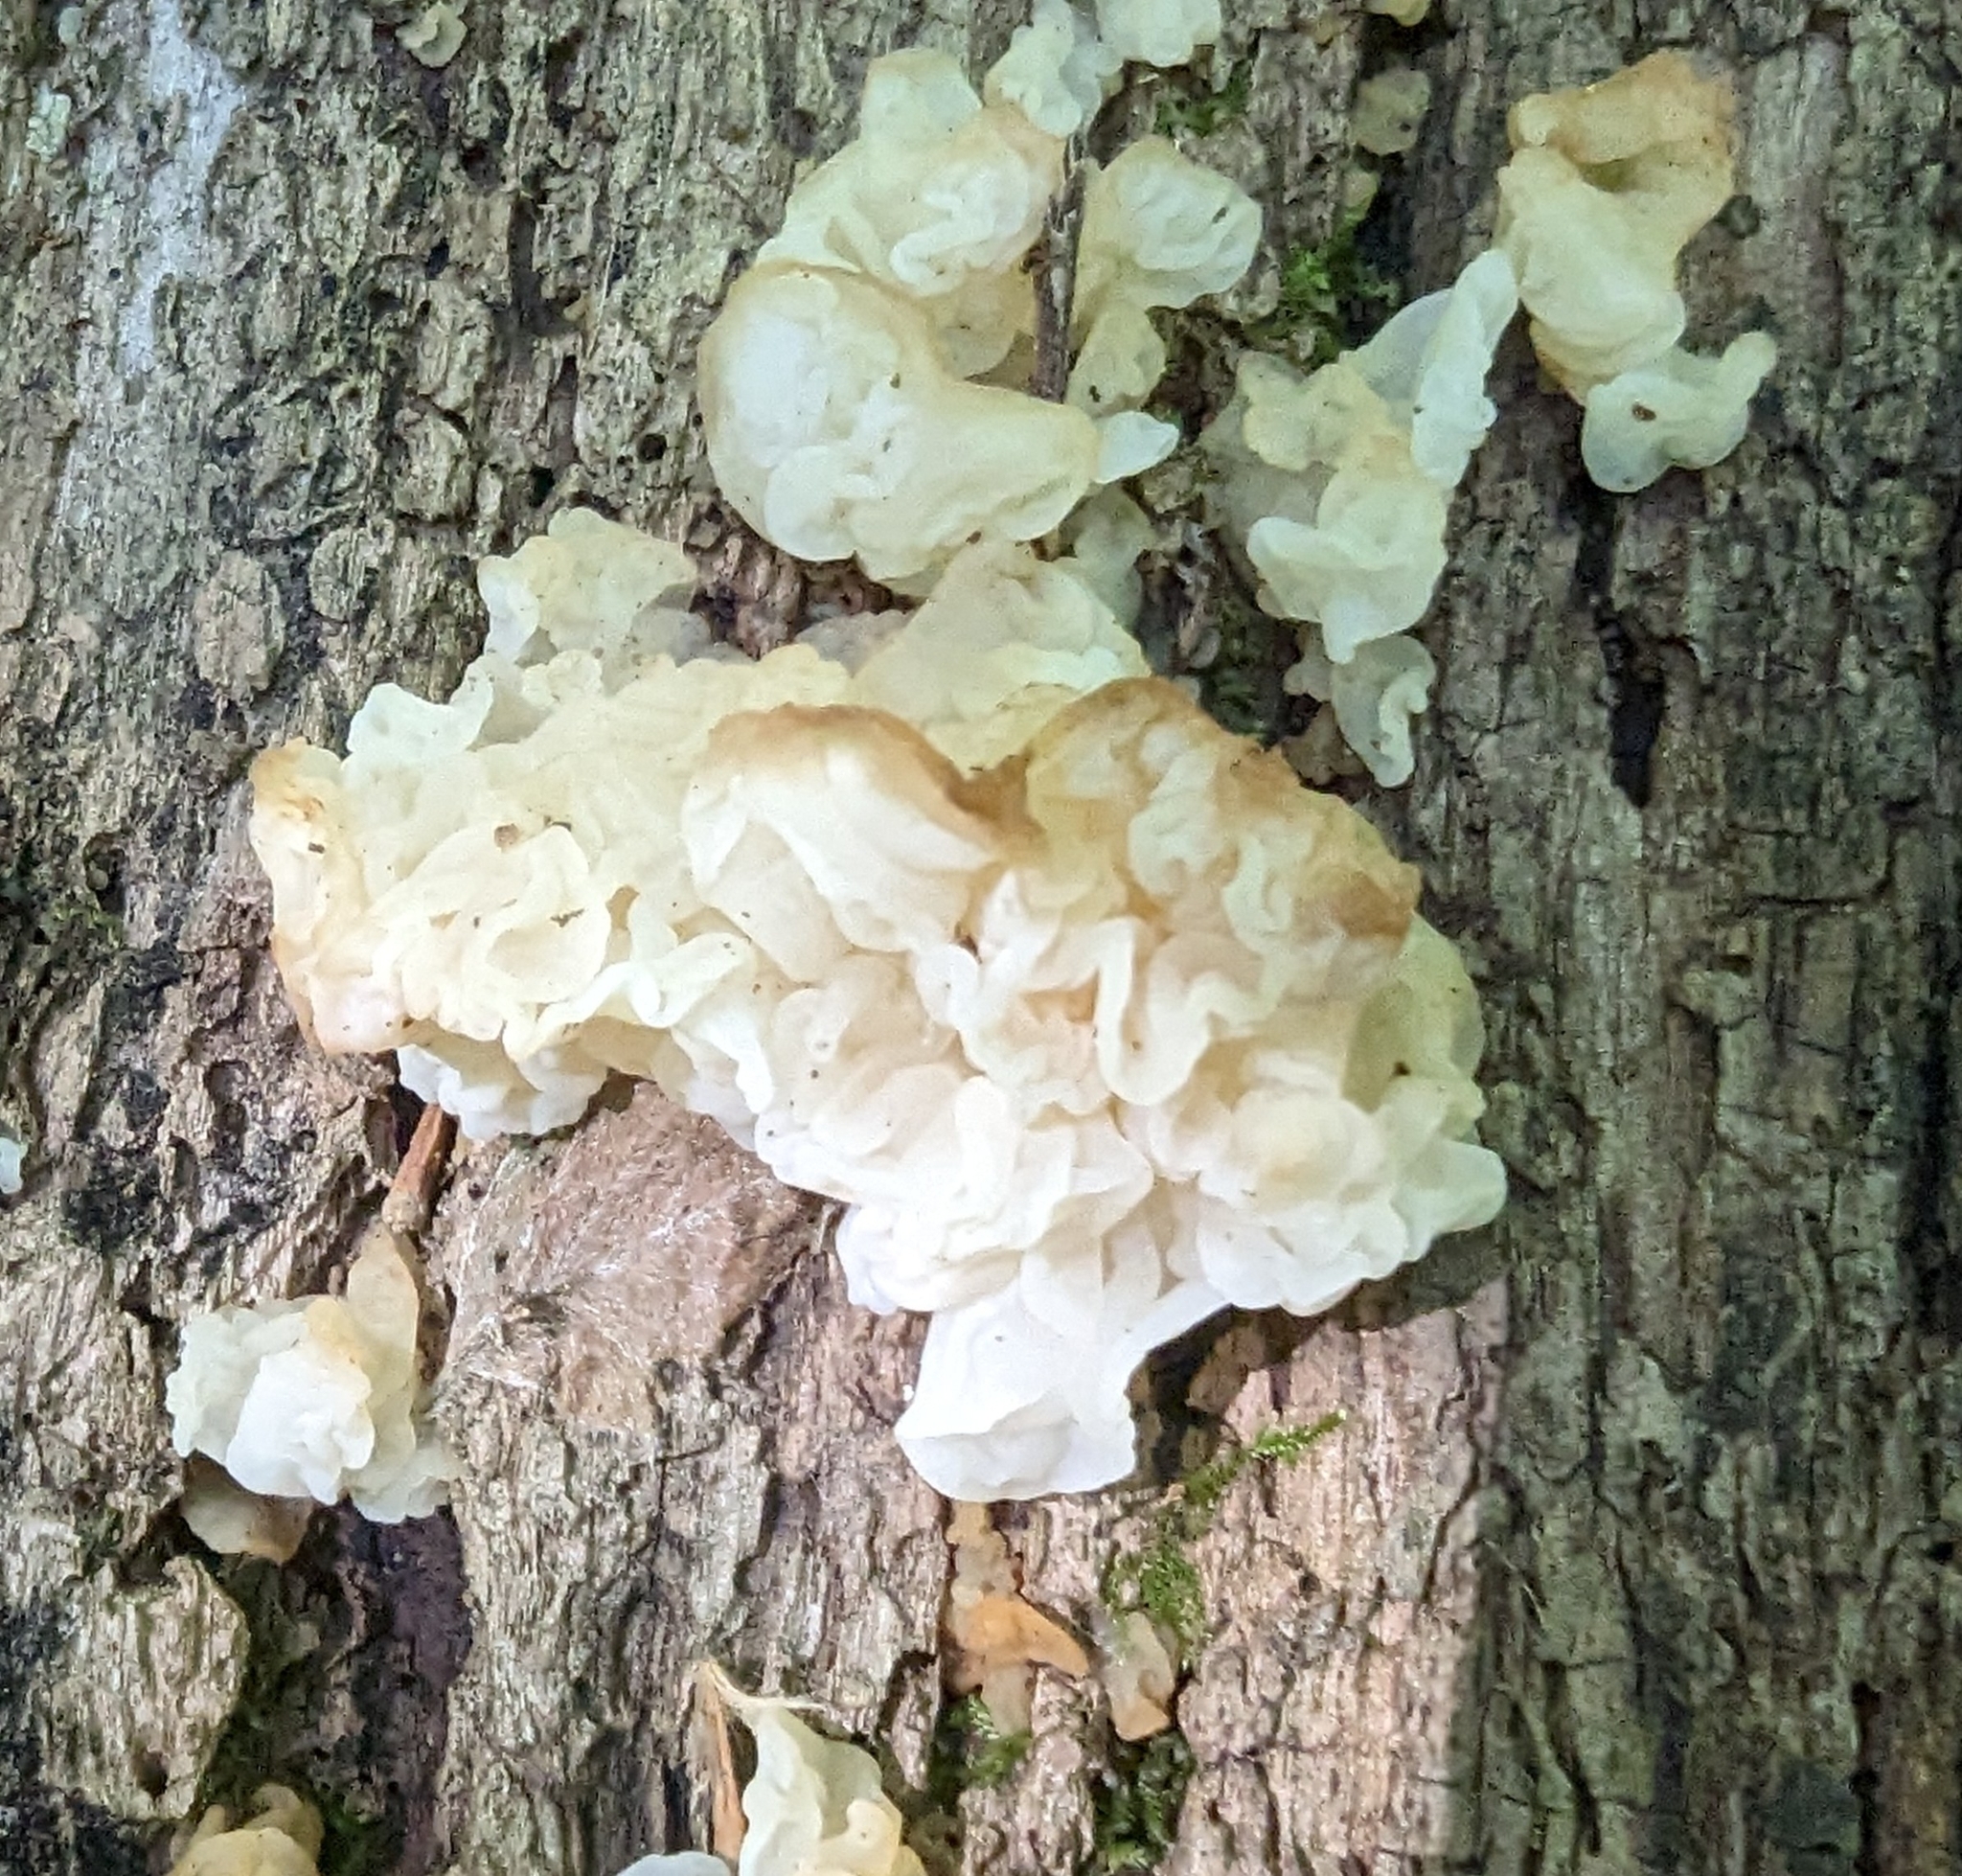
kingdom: Fungi
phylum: Basidiomycota
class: Agaricomycetes
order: Auriculariales
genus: Ductifera
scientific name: Ductifera pululahuana
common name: White jelly fungus
